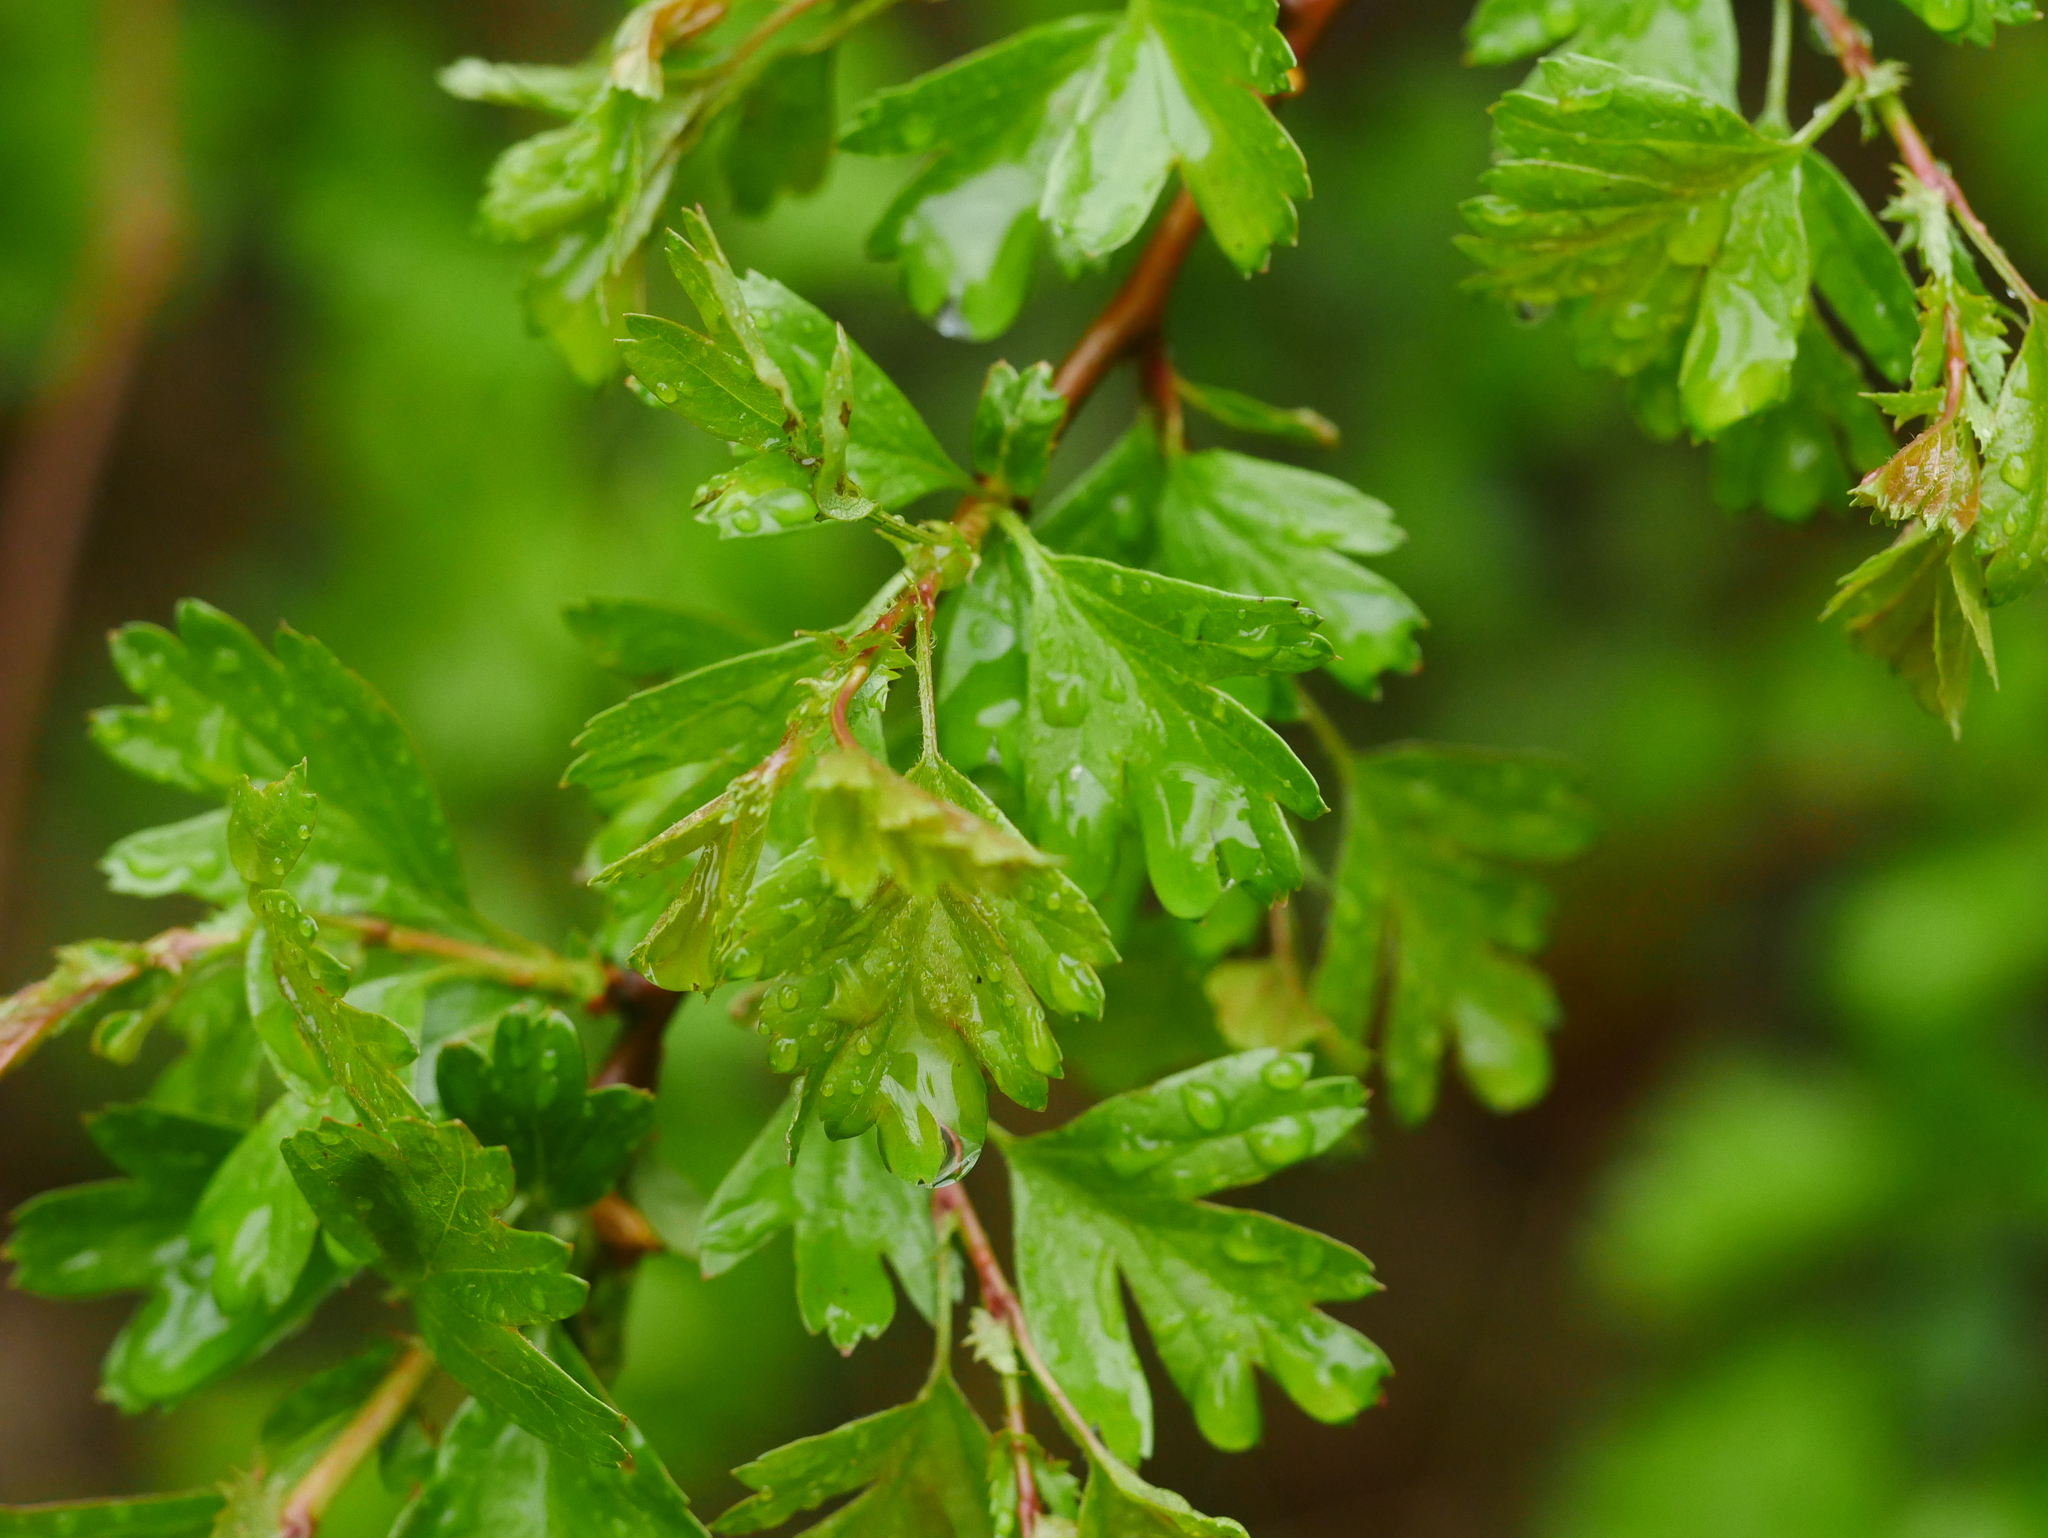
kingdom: Plantae
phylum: Tracheophyta
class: Magnoliopsida
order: Rosales
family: Rosaceae
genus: Crataegus
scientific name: Crataegus monogyna
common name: Hawthorn
